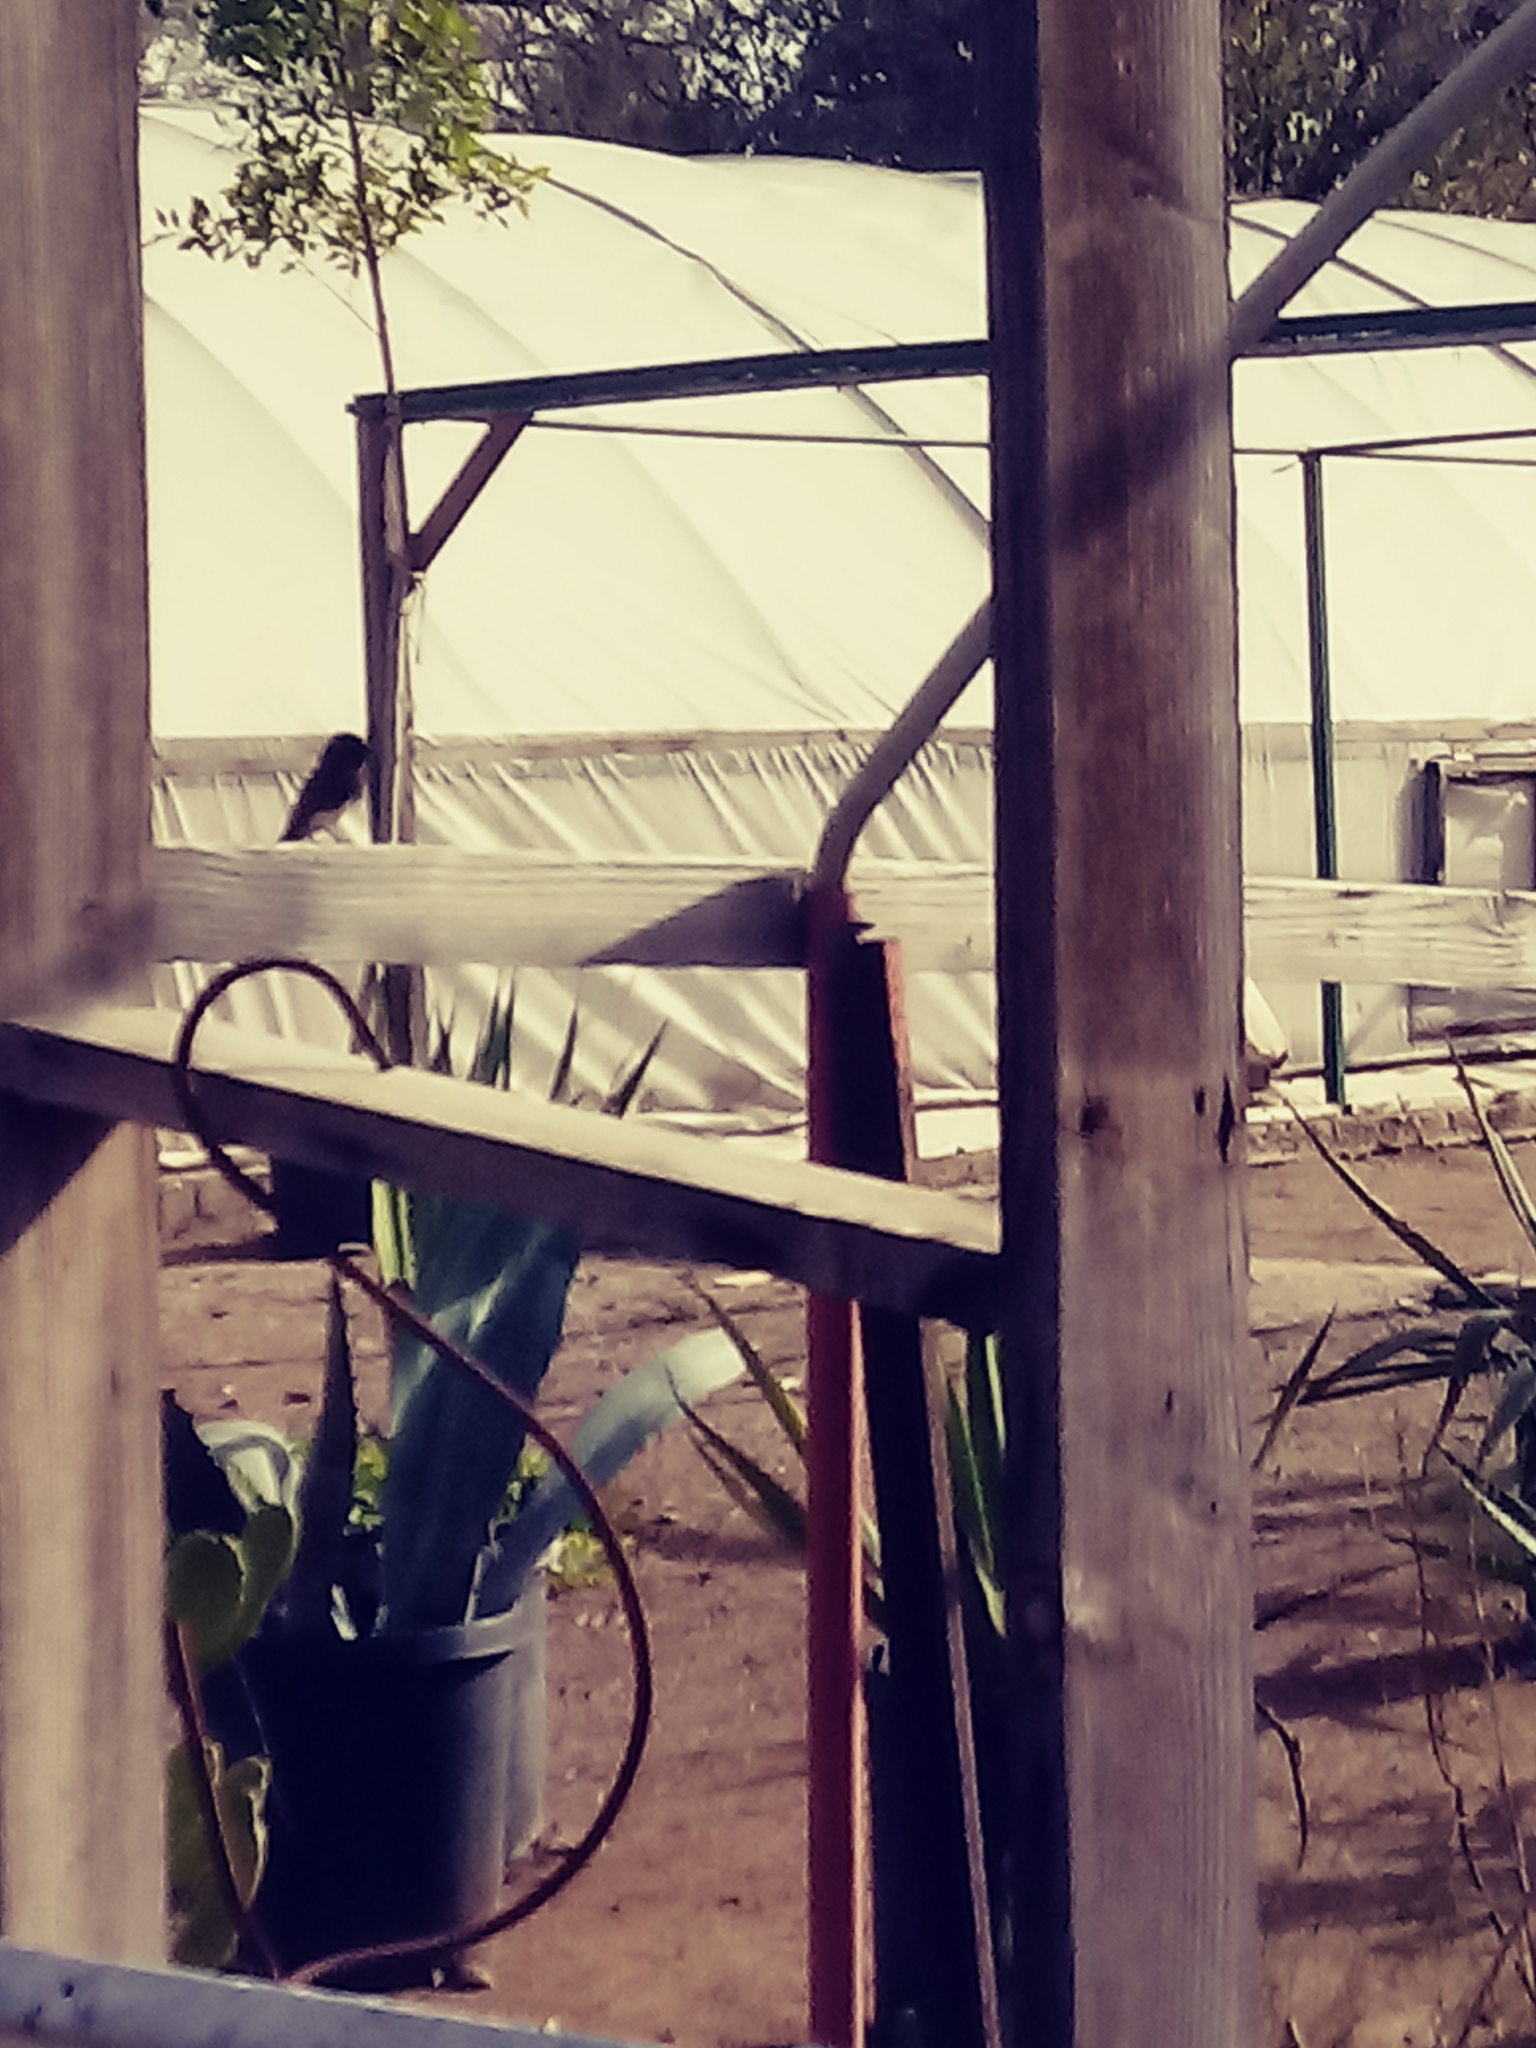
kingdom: Animalia
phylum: Chordata
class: Aves
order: Passeriformes
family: Tyrannidae
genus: Sayornis
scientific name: Sayornis nigricans
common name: Black phoebe
